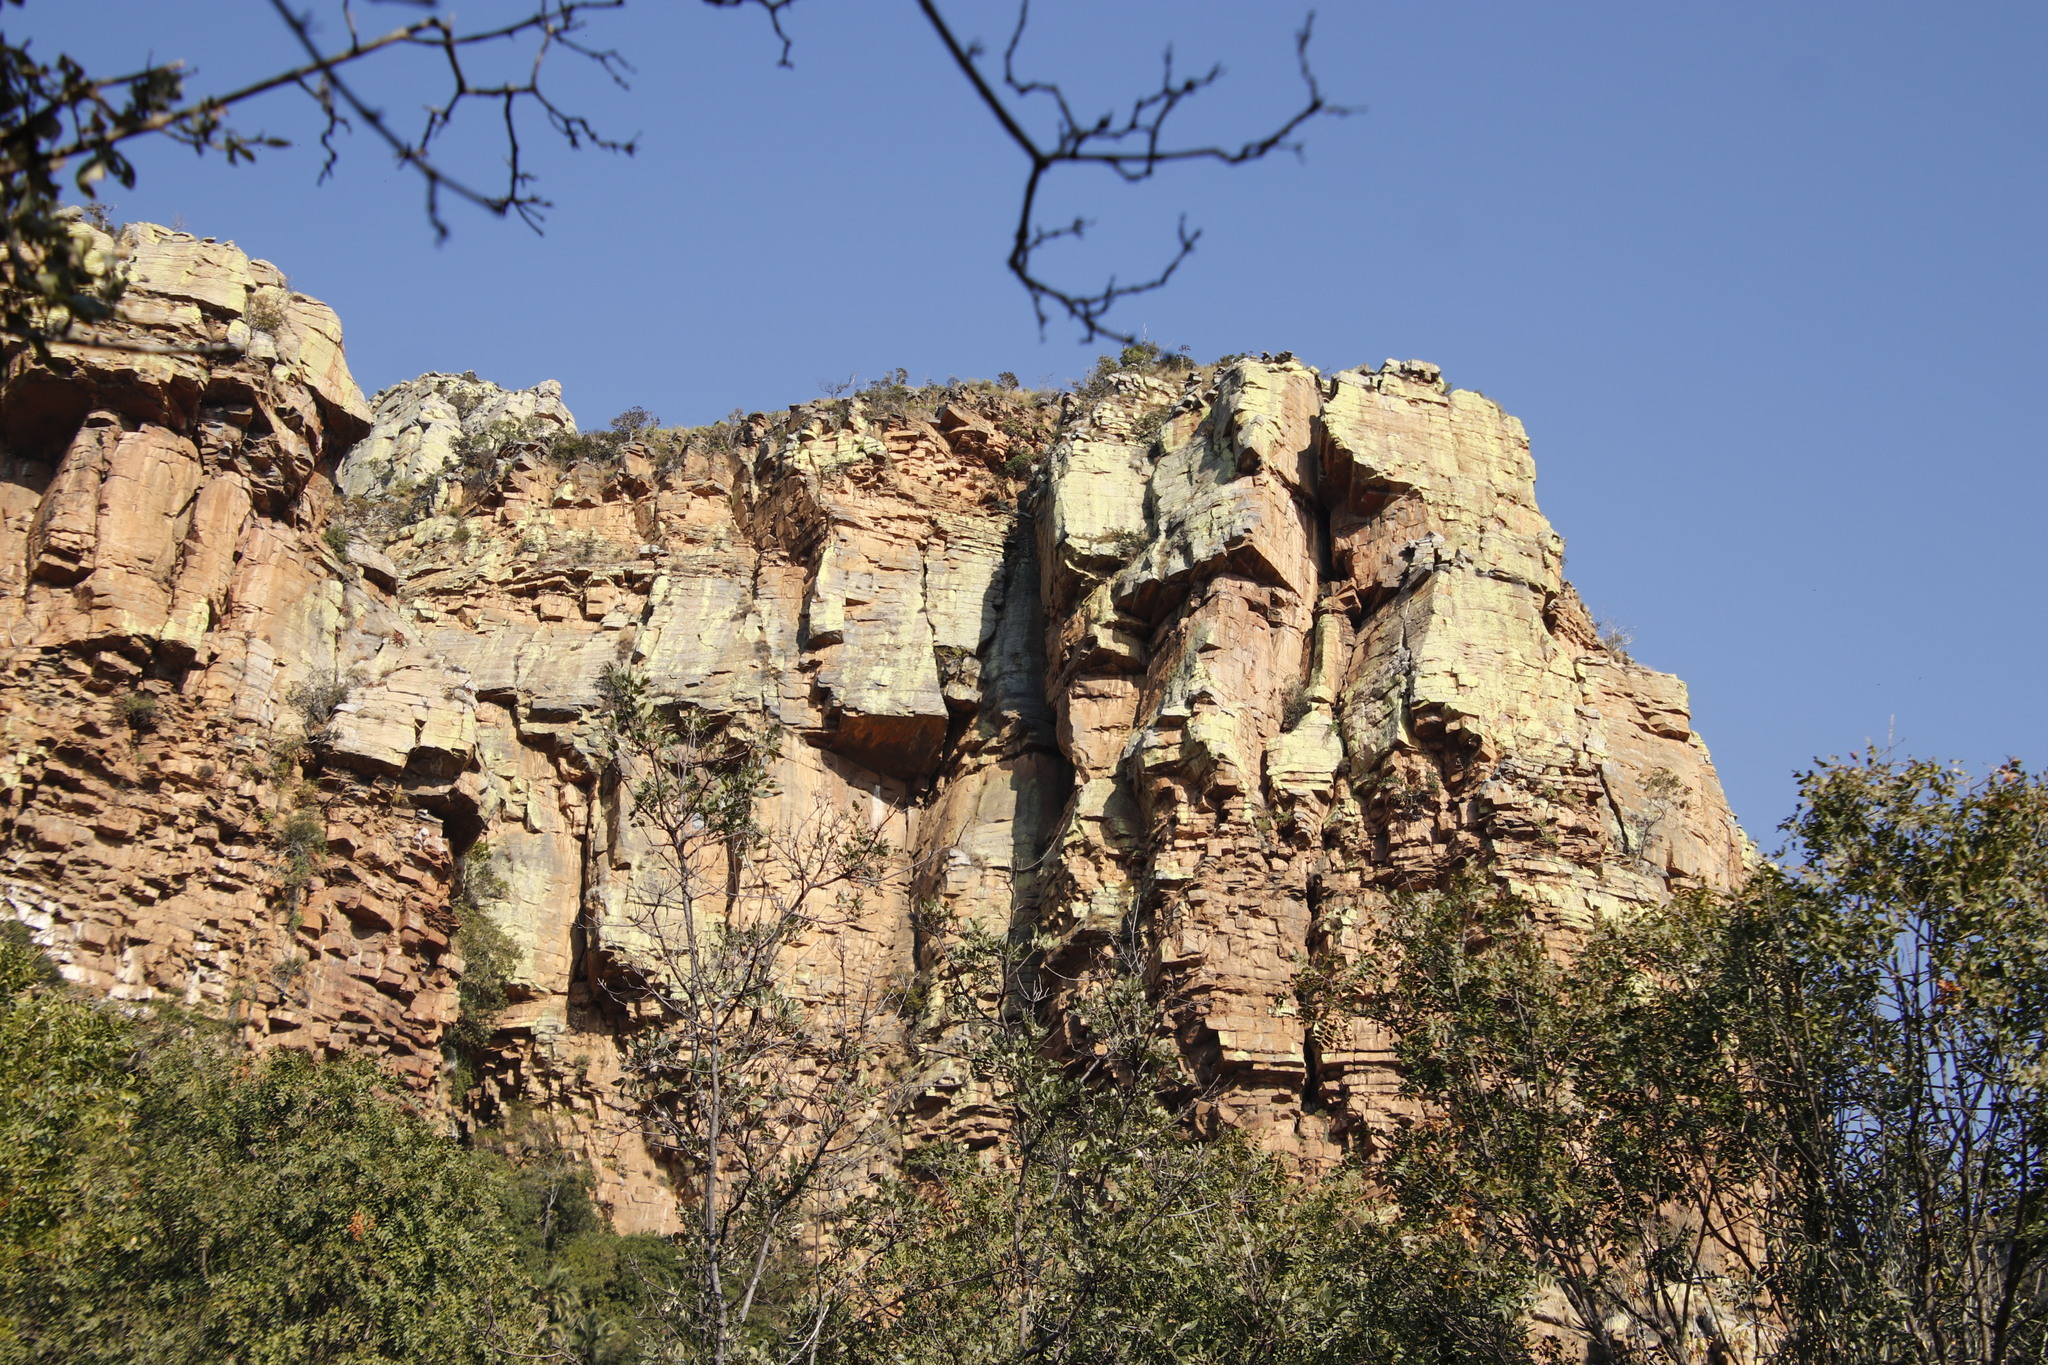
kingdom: Fungi
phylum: Ascomycota
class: Lecanoromycetes
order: Caliciales
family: Caliciaceae
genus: Dermatiscum
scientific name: Dermatiscum thunbergii
